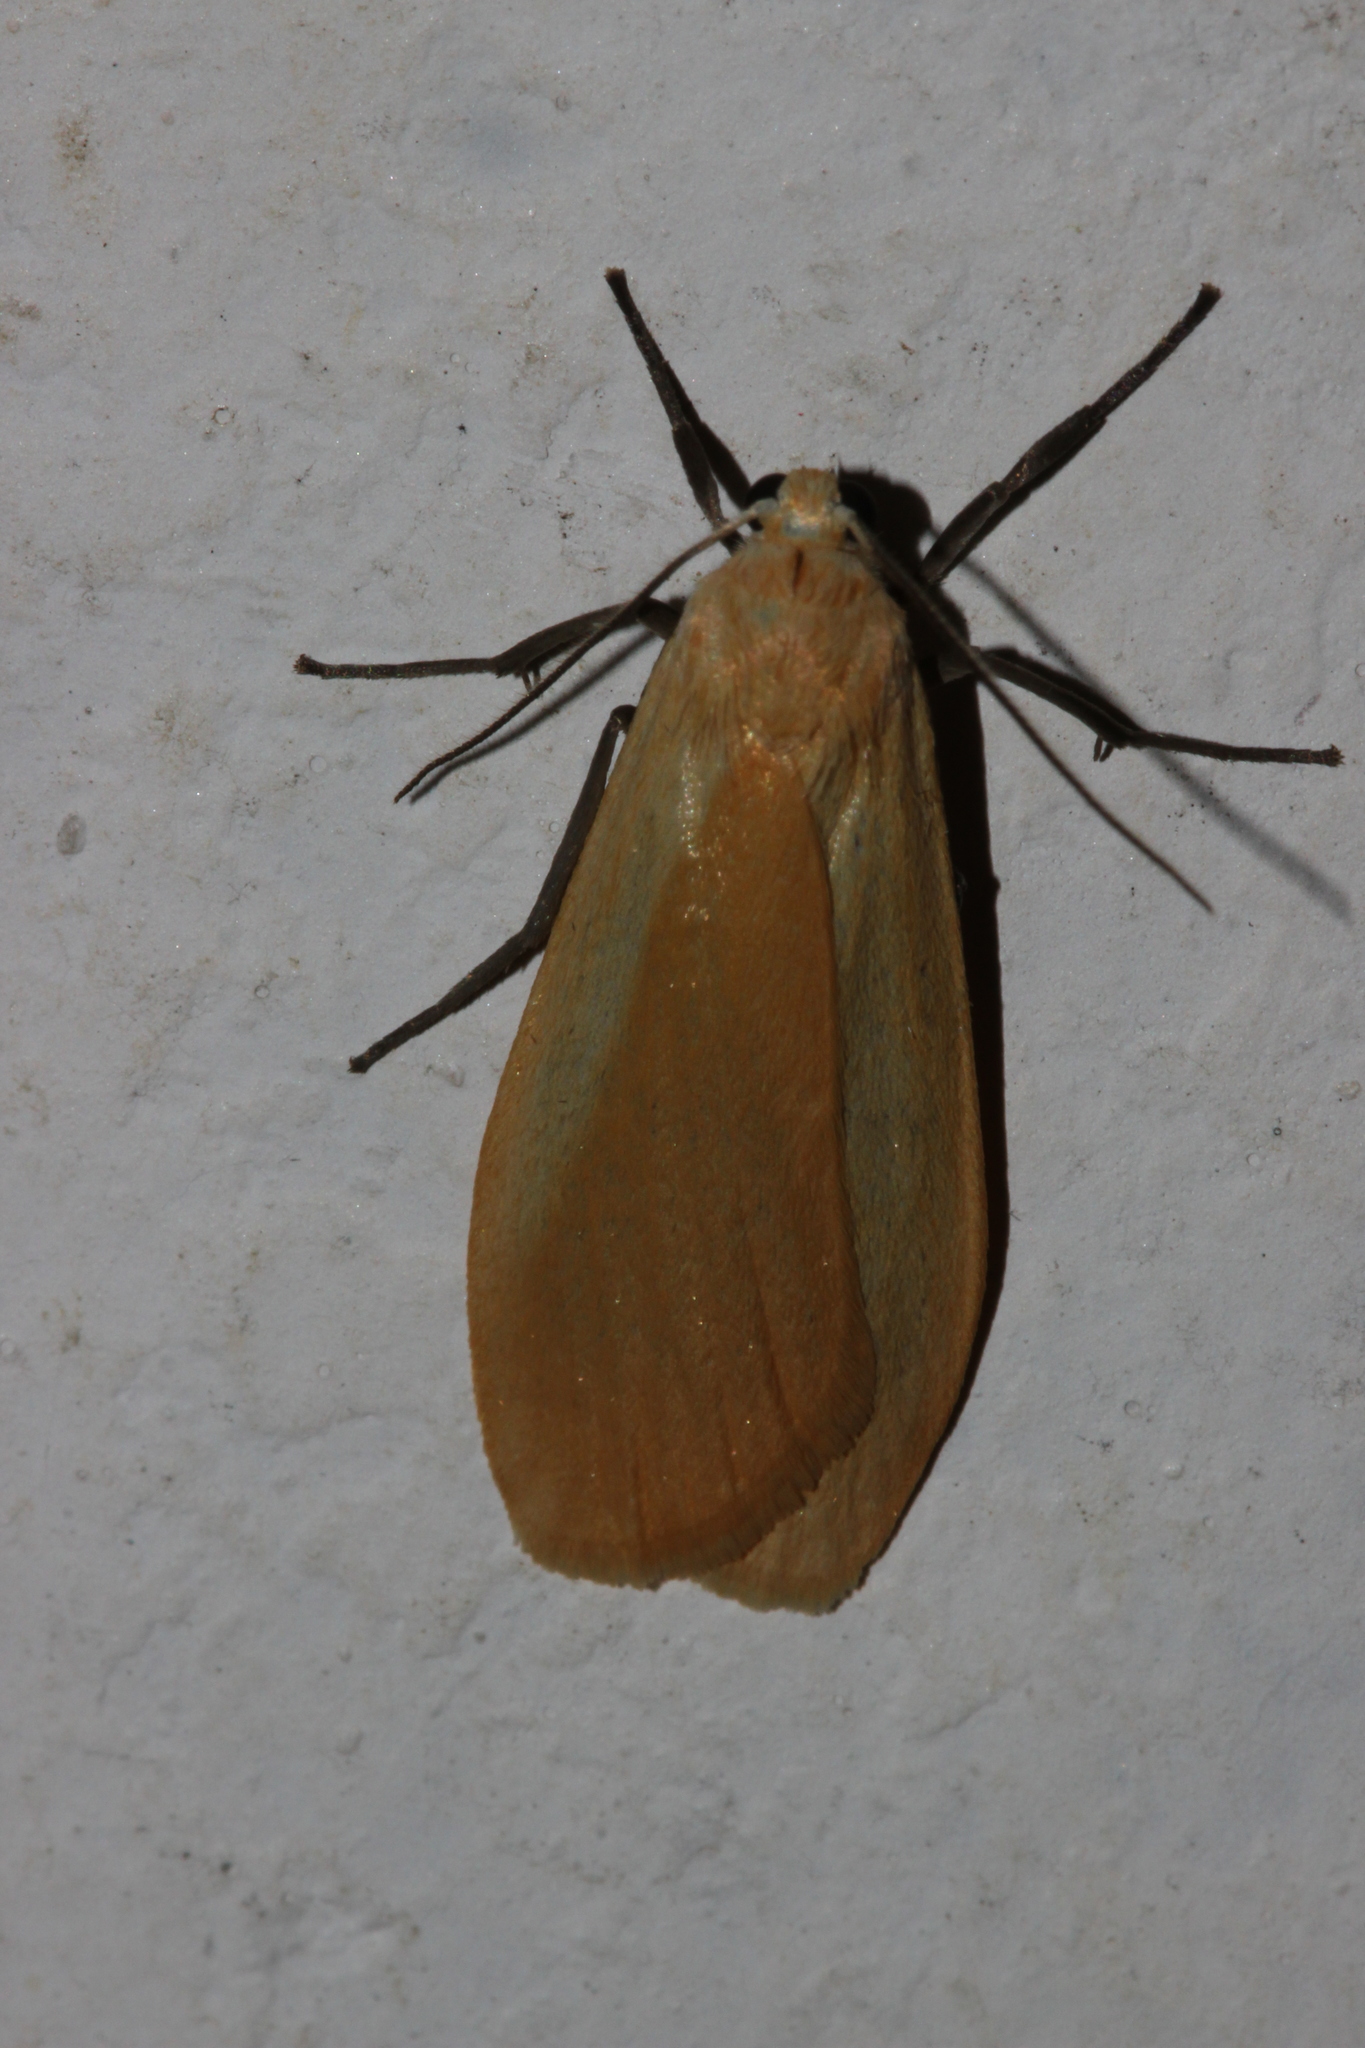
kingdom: Animalia
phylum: Arthropoda
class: Insecta
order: Lepidoptera
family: Erebidae
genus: Wittia
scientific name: Wittia sororcula
